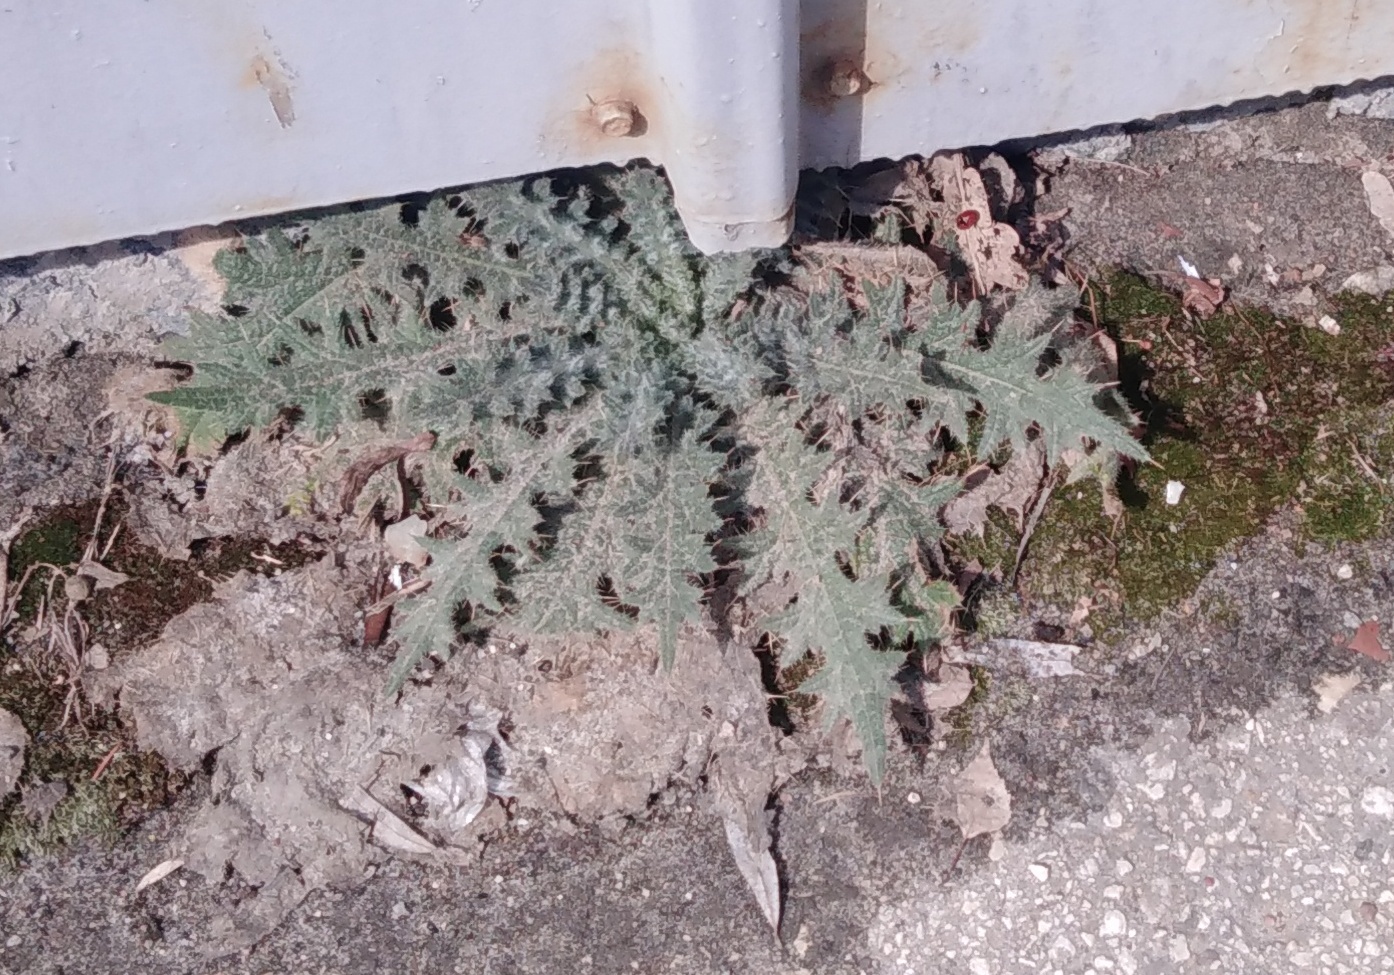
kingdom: Plantae
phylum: Tracheophyta
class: Magnoliopsida
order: Asterales
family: Asteraceae
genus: Cirsium
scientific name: Cirsium vulgare
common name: Bull thistle
